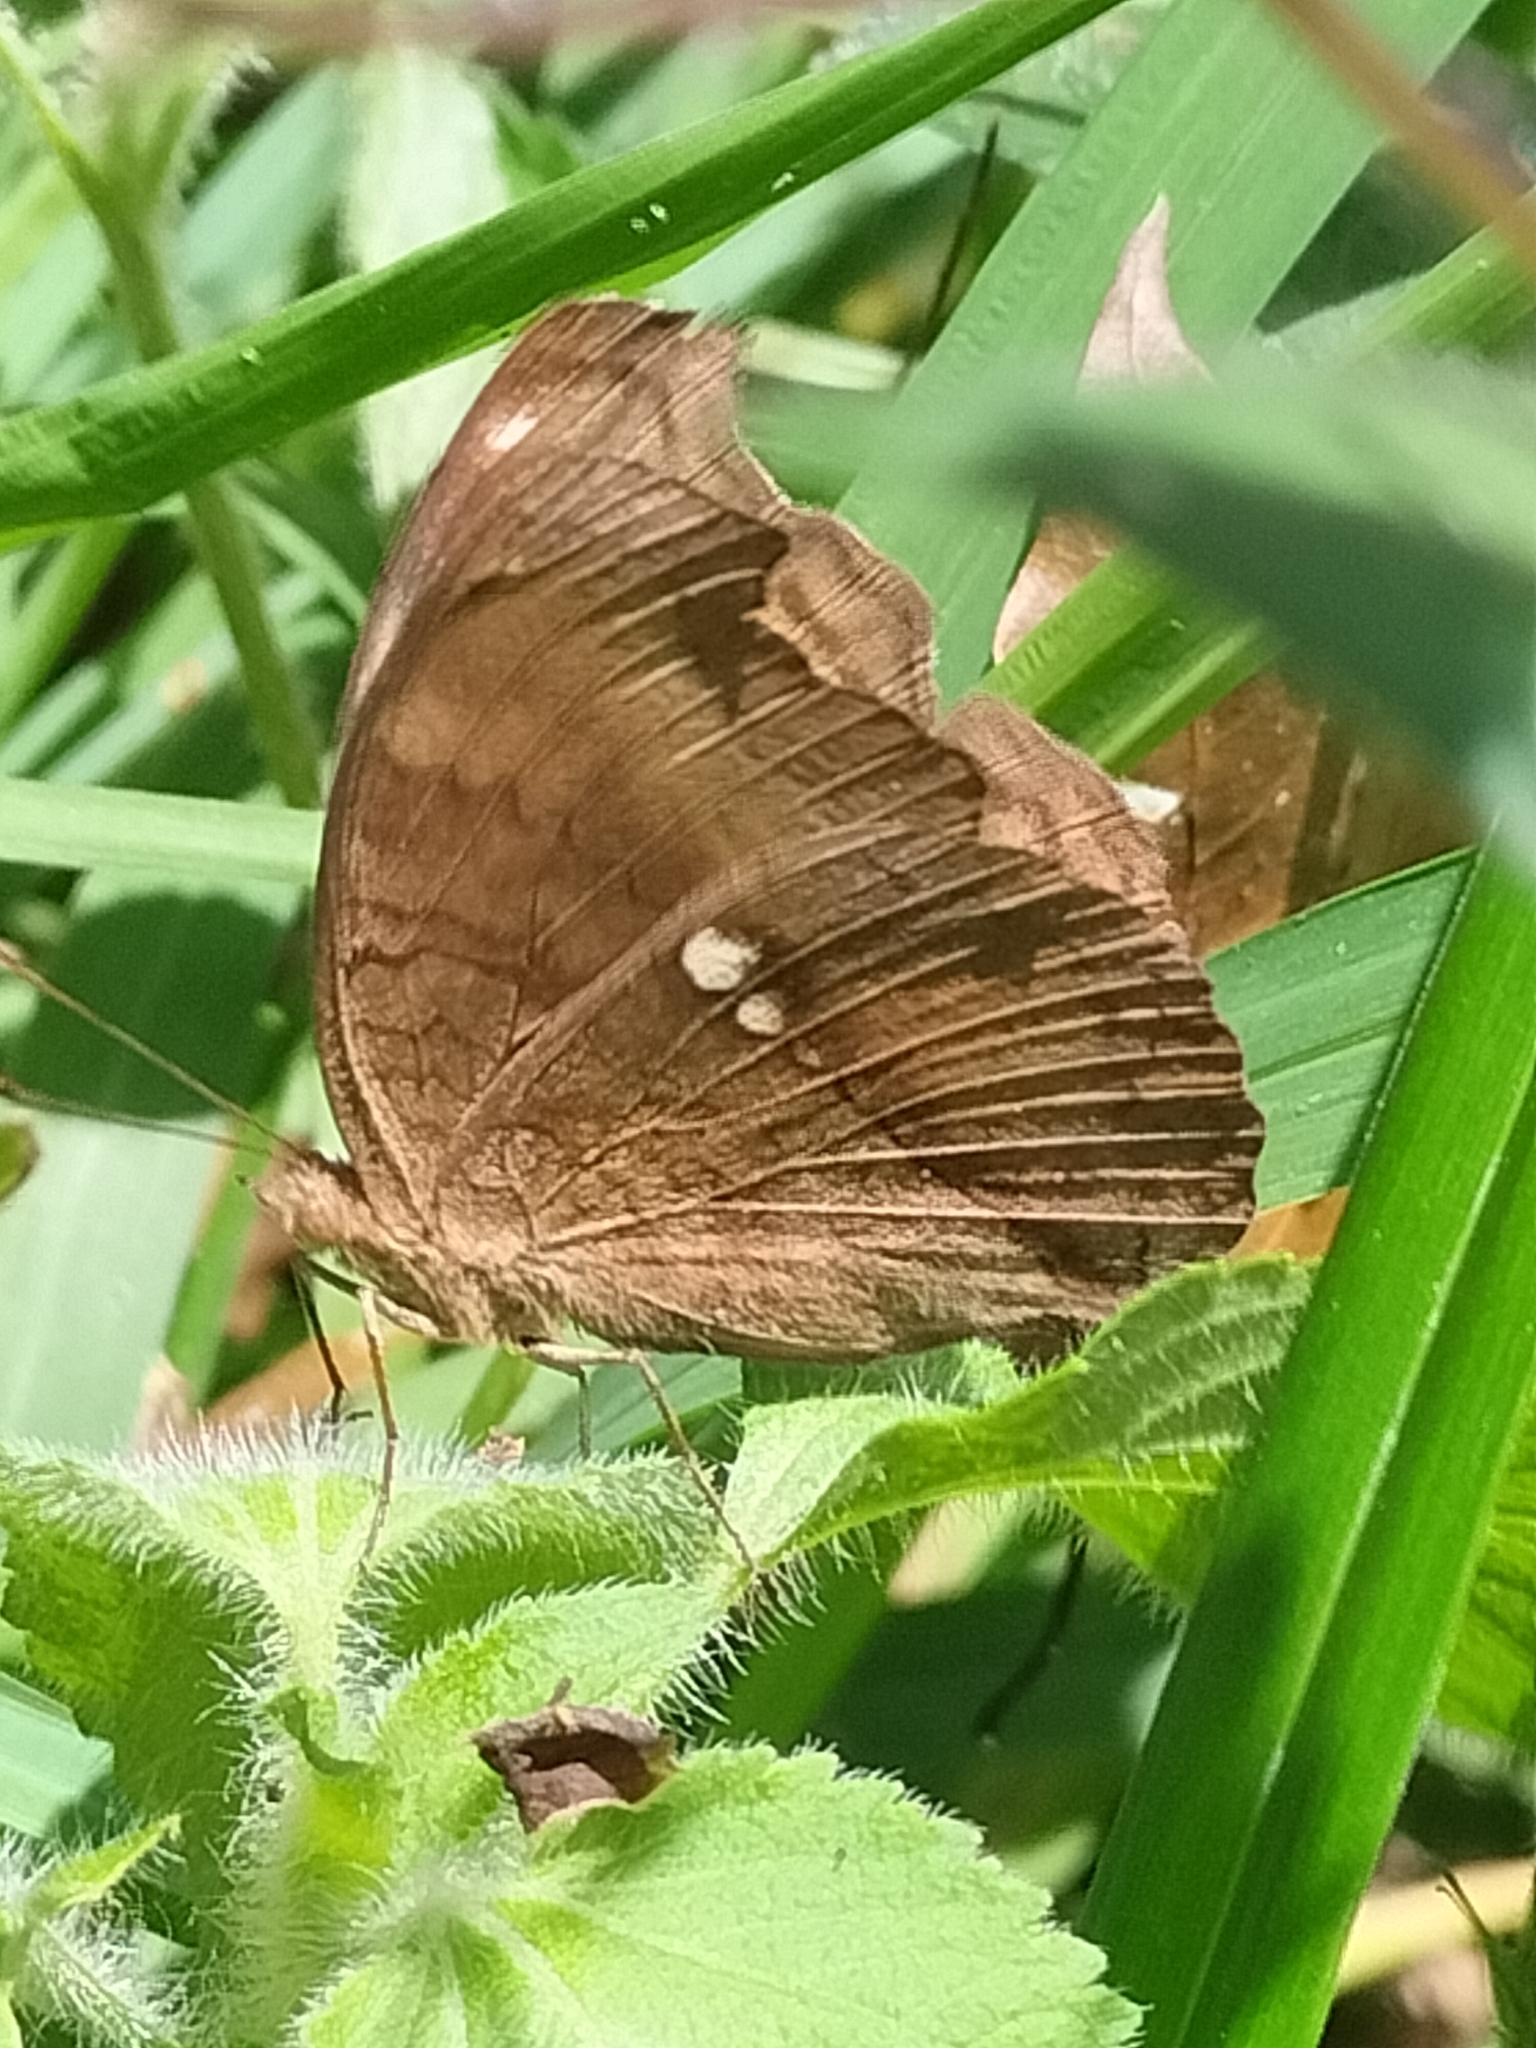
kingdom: Animalia
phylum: Arthropoda
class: Insecta
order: Lepidoptera
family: Nymphalidae
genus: Junonia
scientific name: Junonia hedonia
